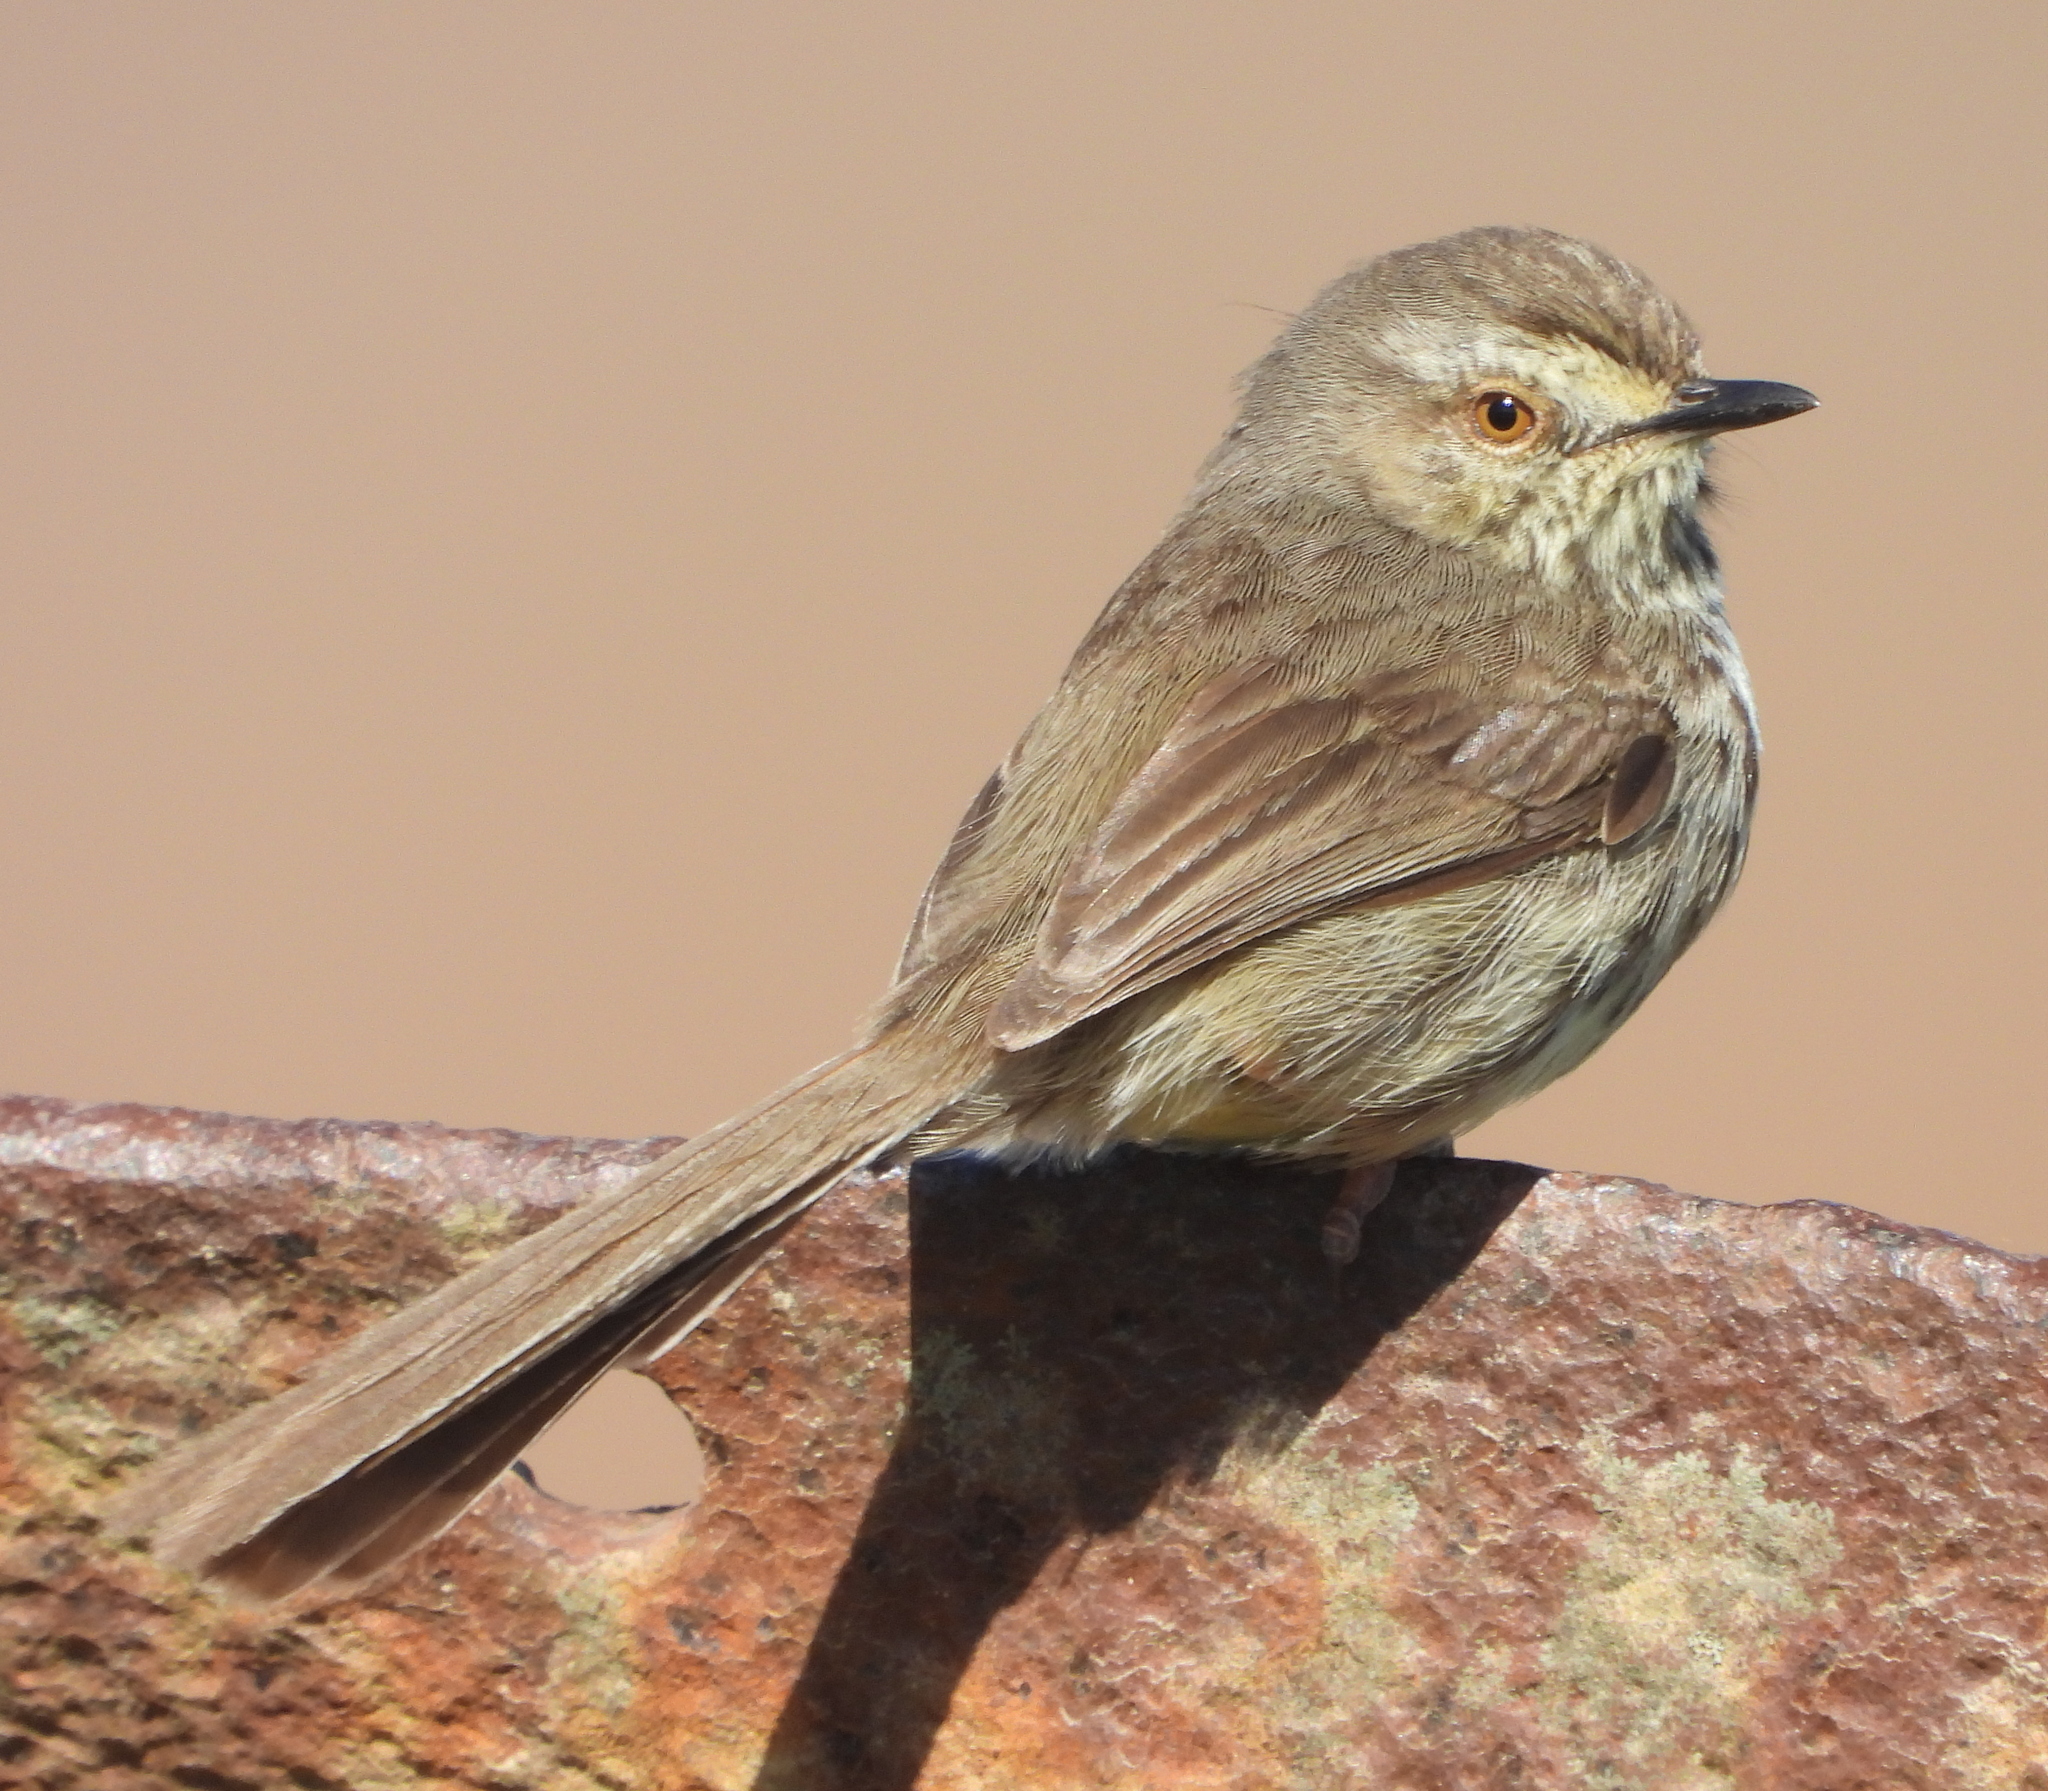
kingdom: Animalia
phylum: Chordata
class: Aves
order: Passeriformes
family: Cisticolidae
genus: Prinia
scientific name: Prinia maculosa
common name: Karoo prinia
